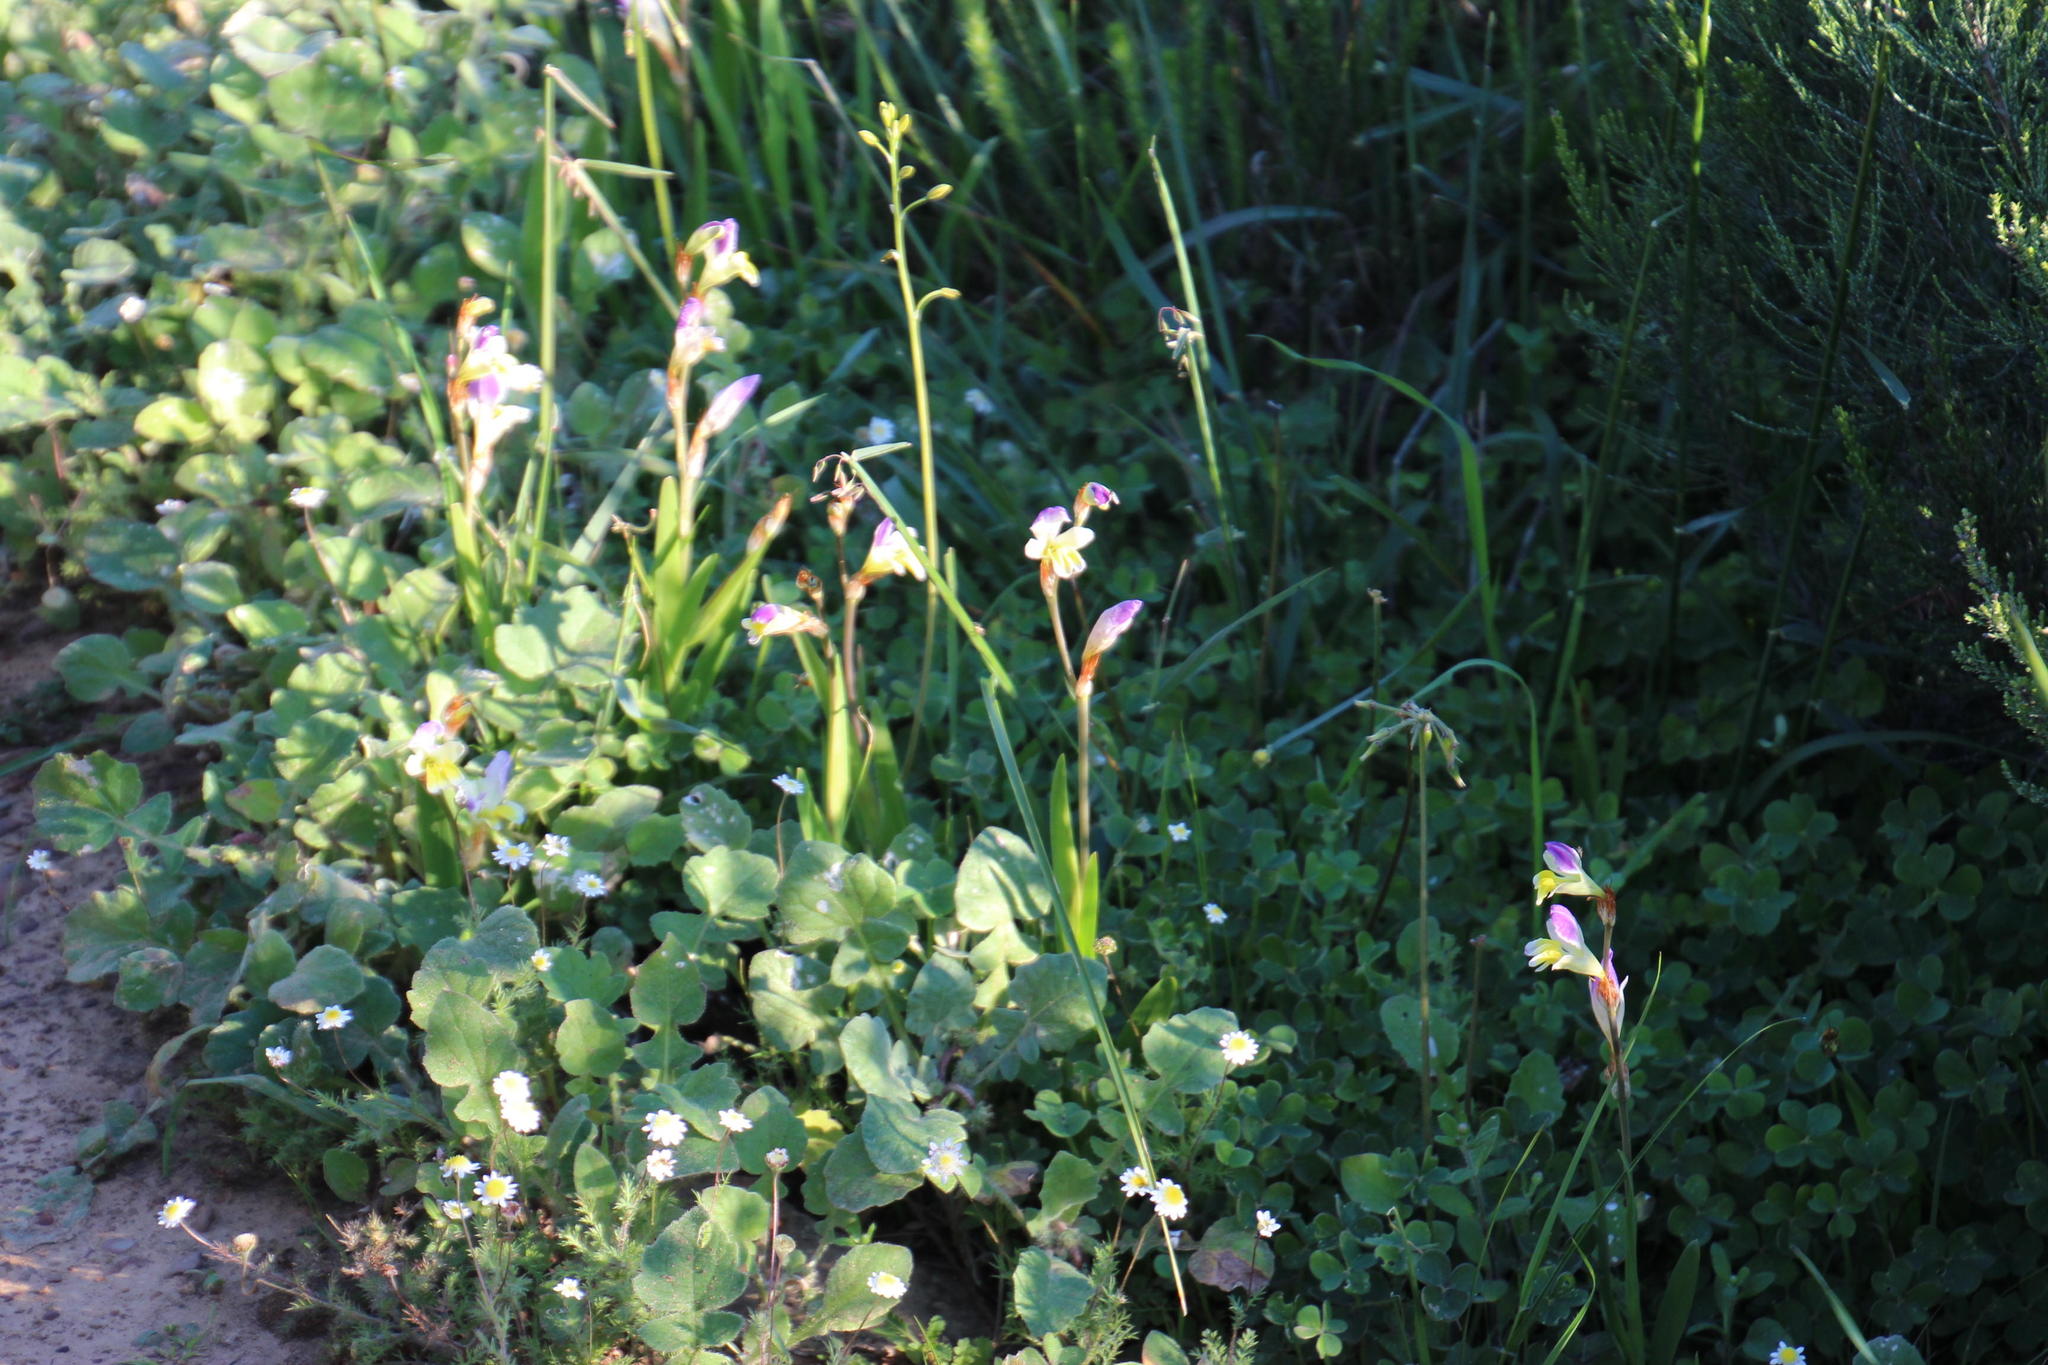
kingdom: Plantae
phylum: Tracheophyta
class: Liliopsida
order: Asparagales
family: Iridaceae
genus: Sparaxis
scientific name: Sparaxis villosa
